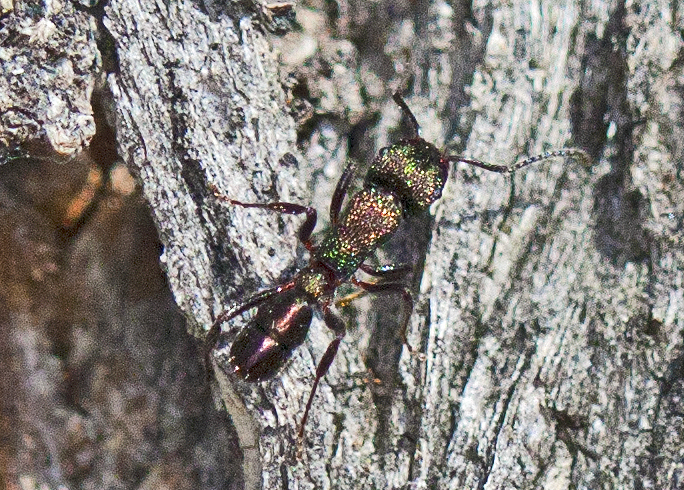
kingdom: Animalia
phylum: Arthropoda
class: Insecta
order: Hymenoptera
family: Formicidae
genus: Rhytidoponera
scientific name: Rhytidoponera metallica
